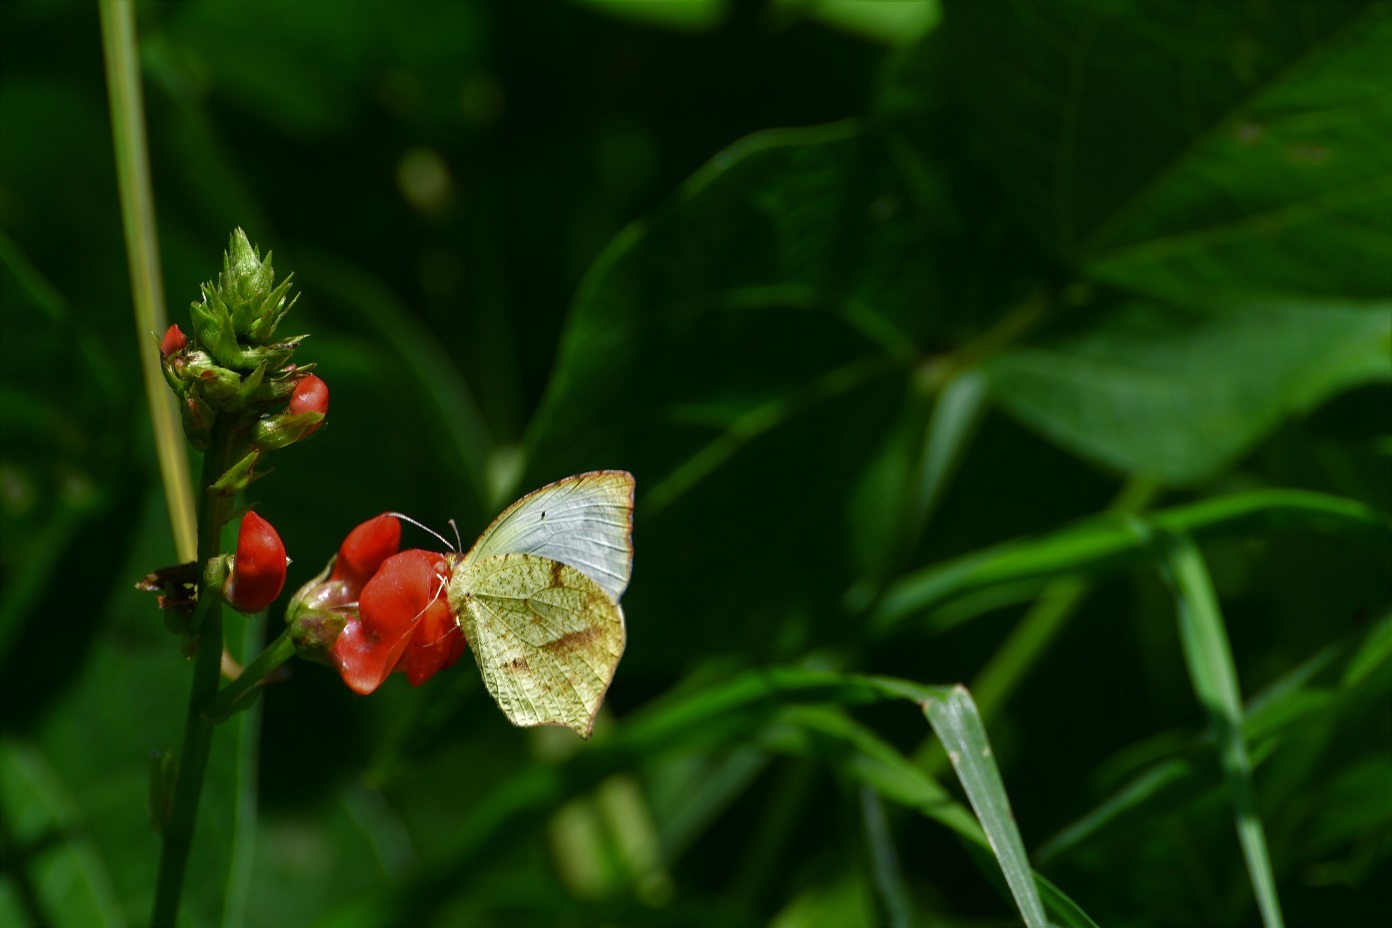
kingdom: Animalia
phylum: Arthropoda
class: Insecta
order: Lepidoptera
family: Pieridae
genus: Abaeis
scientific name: Abaeis mexicana
